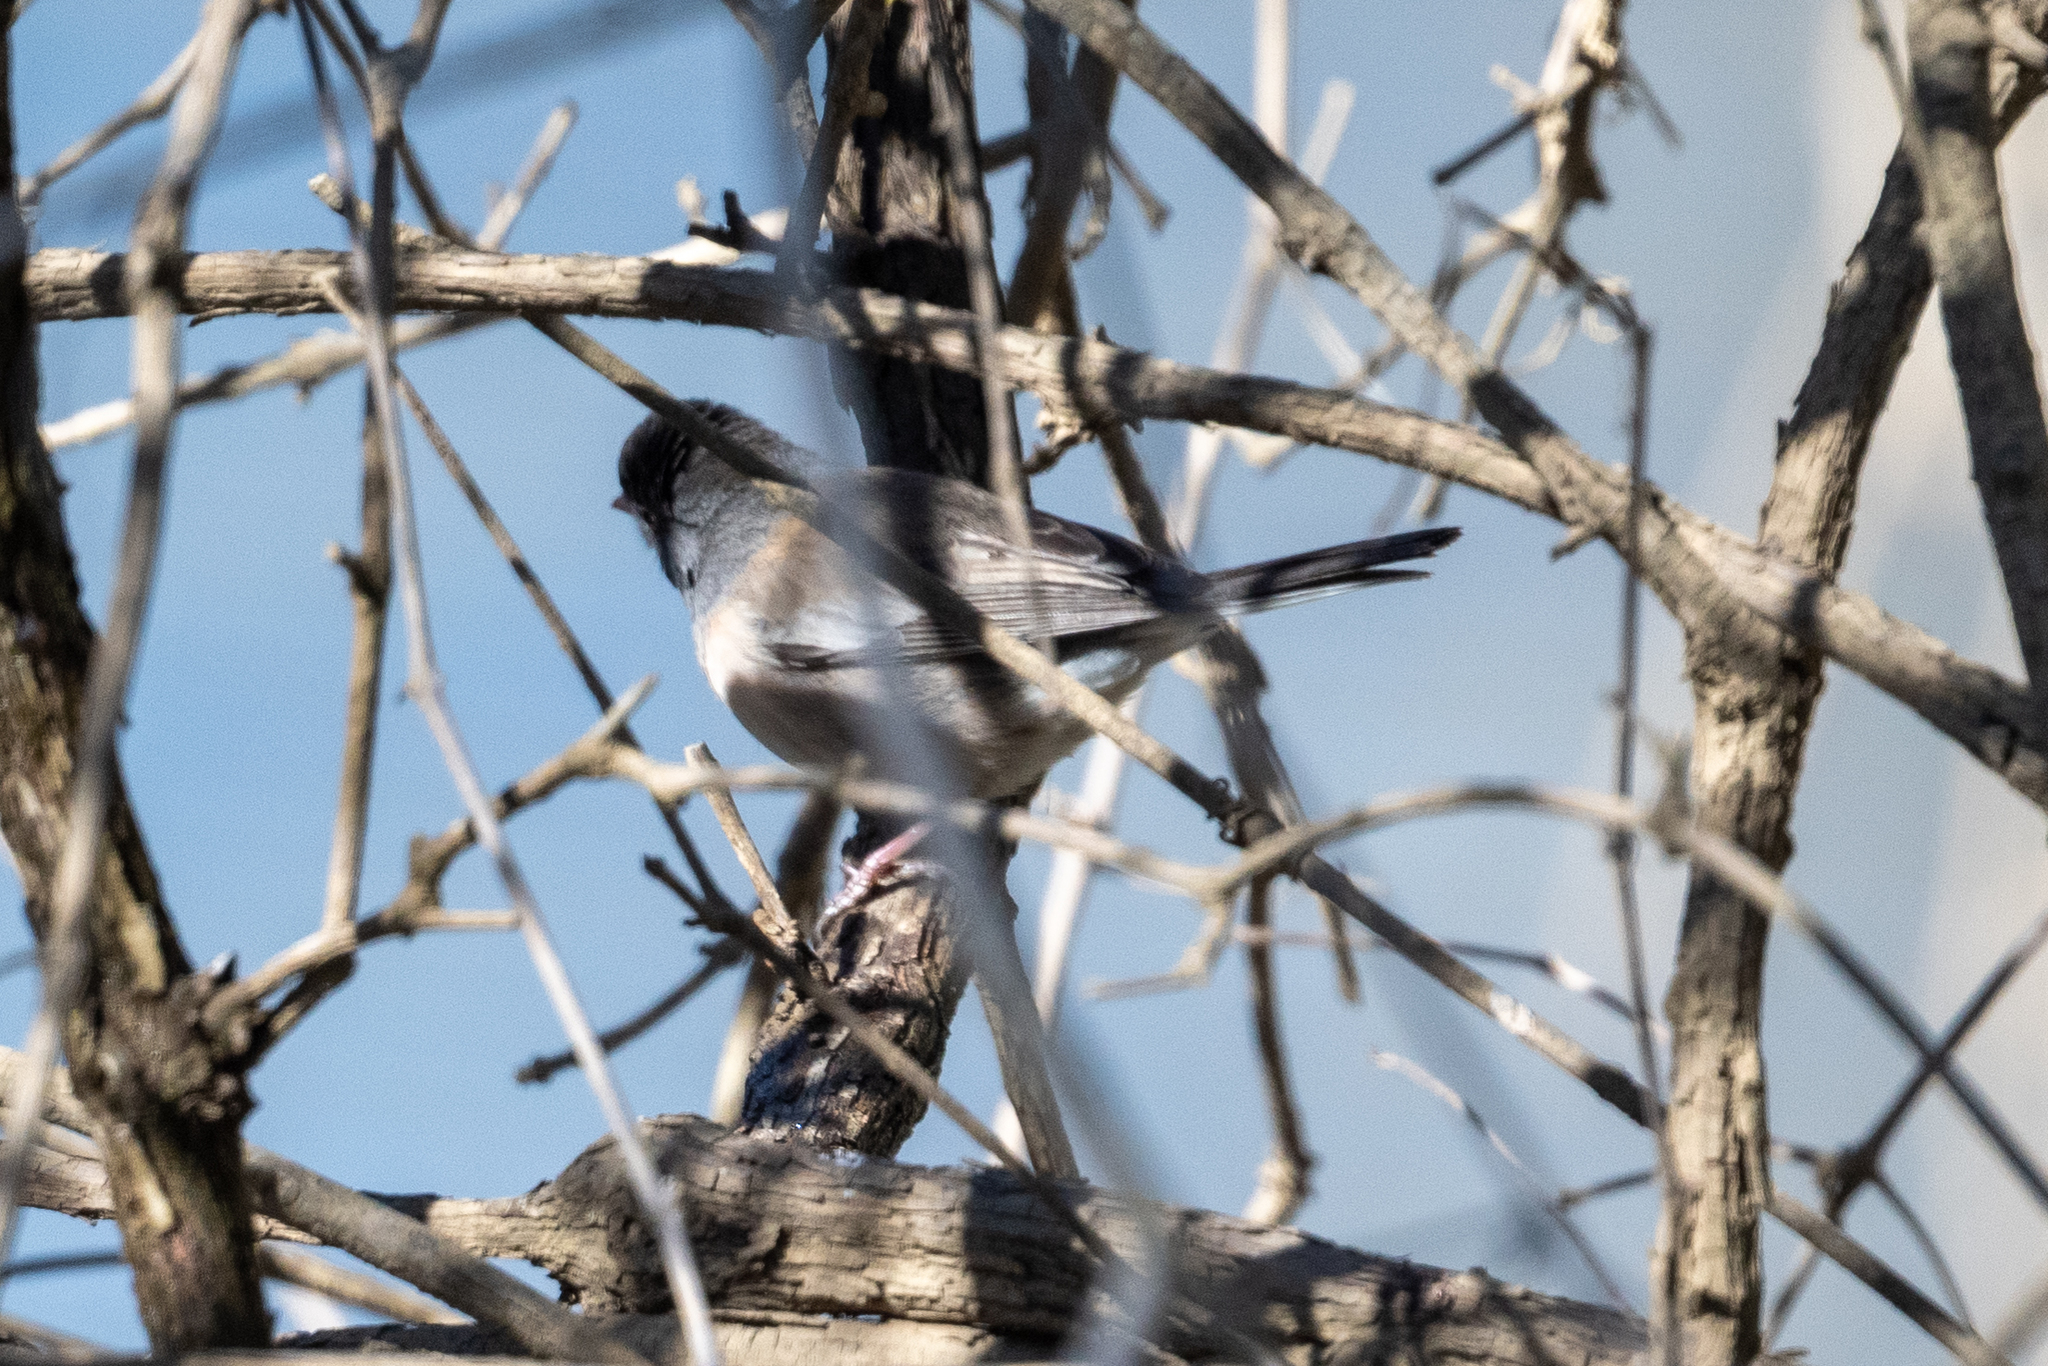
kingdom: Animalia
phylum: Chordata
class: Aves
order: Passeriformes
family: Passerellidae
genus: Junco
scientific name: Junco hyemalis
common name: Dark-eyed junco
